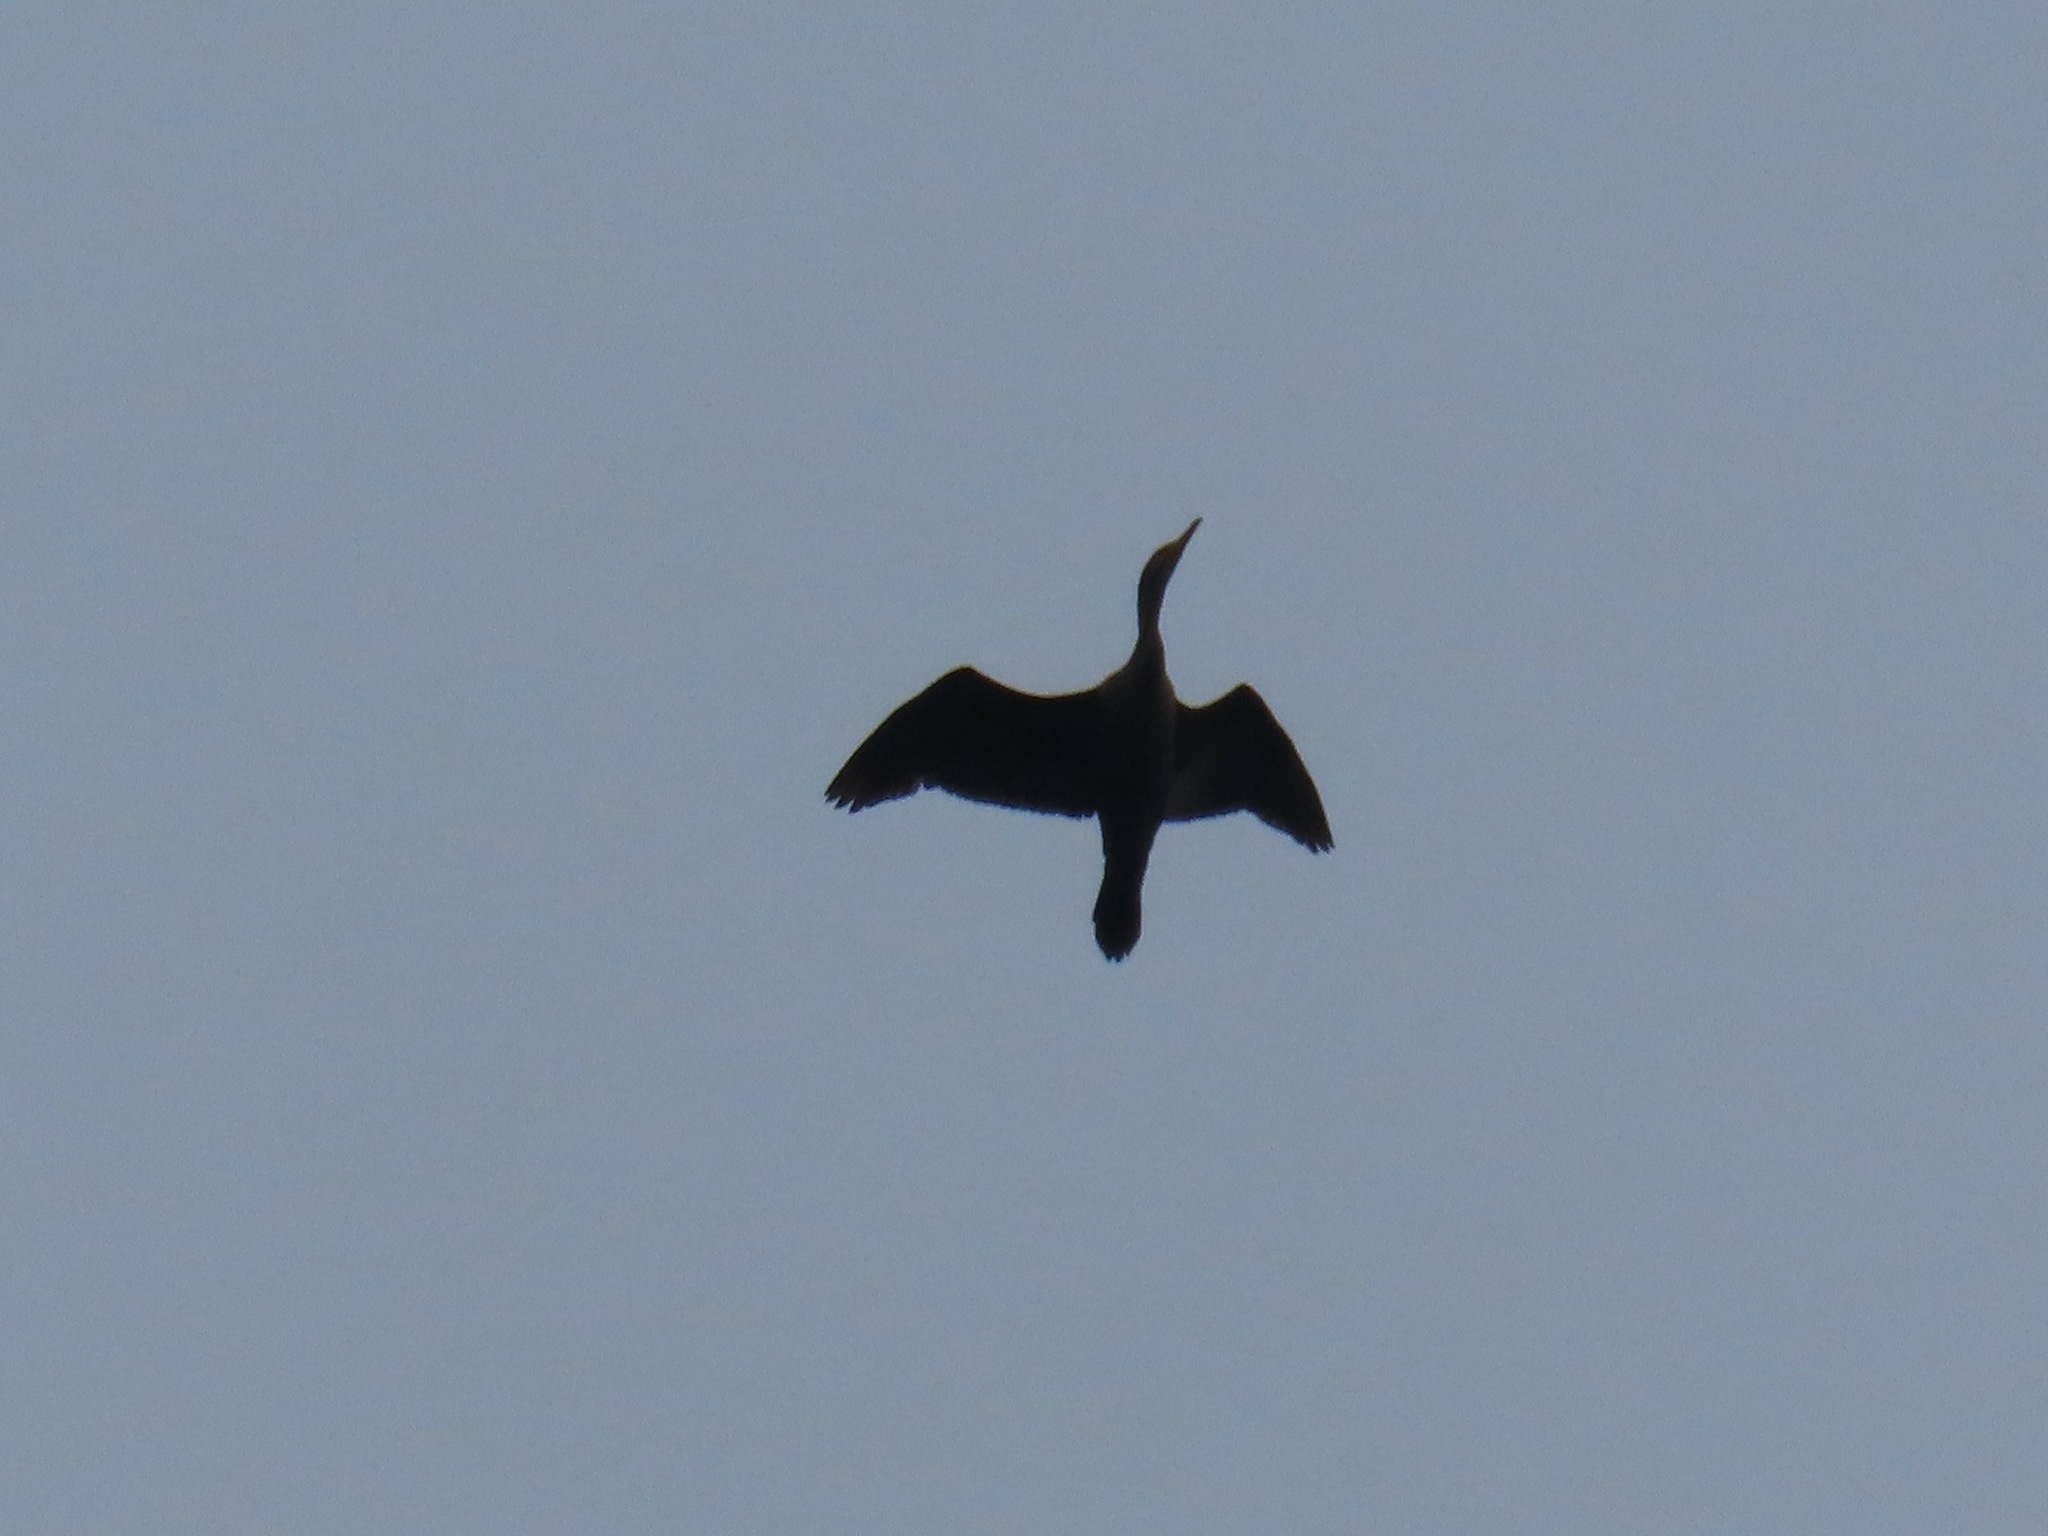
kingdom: Animalia
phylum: Chordata
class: Aves
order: Suliformes
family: Phalacrocoracidae
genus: Phalacrocorax
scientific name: Phalacrocorax auritus
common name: Double-crested cormorant
